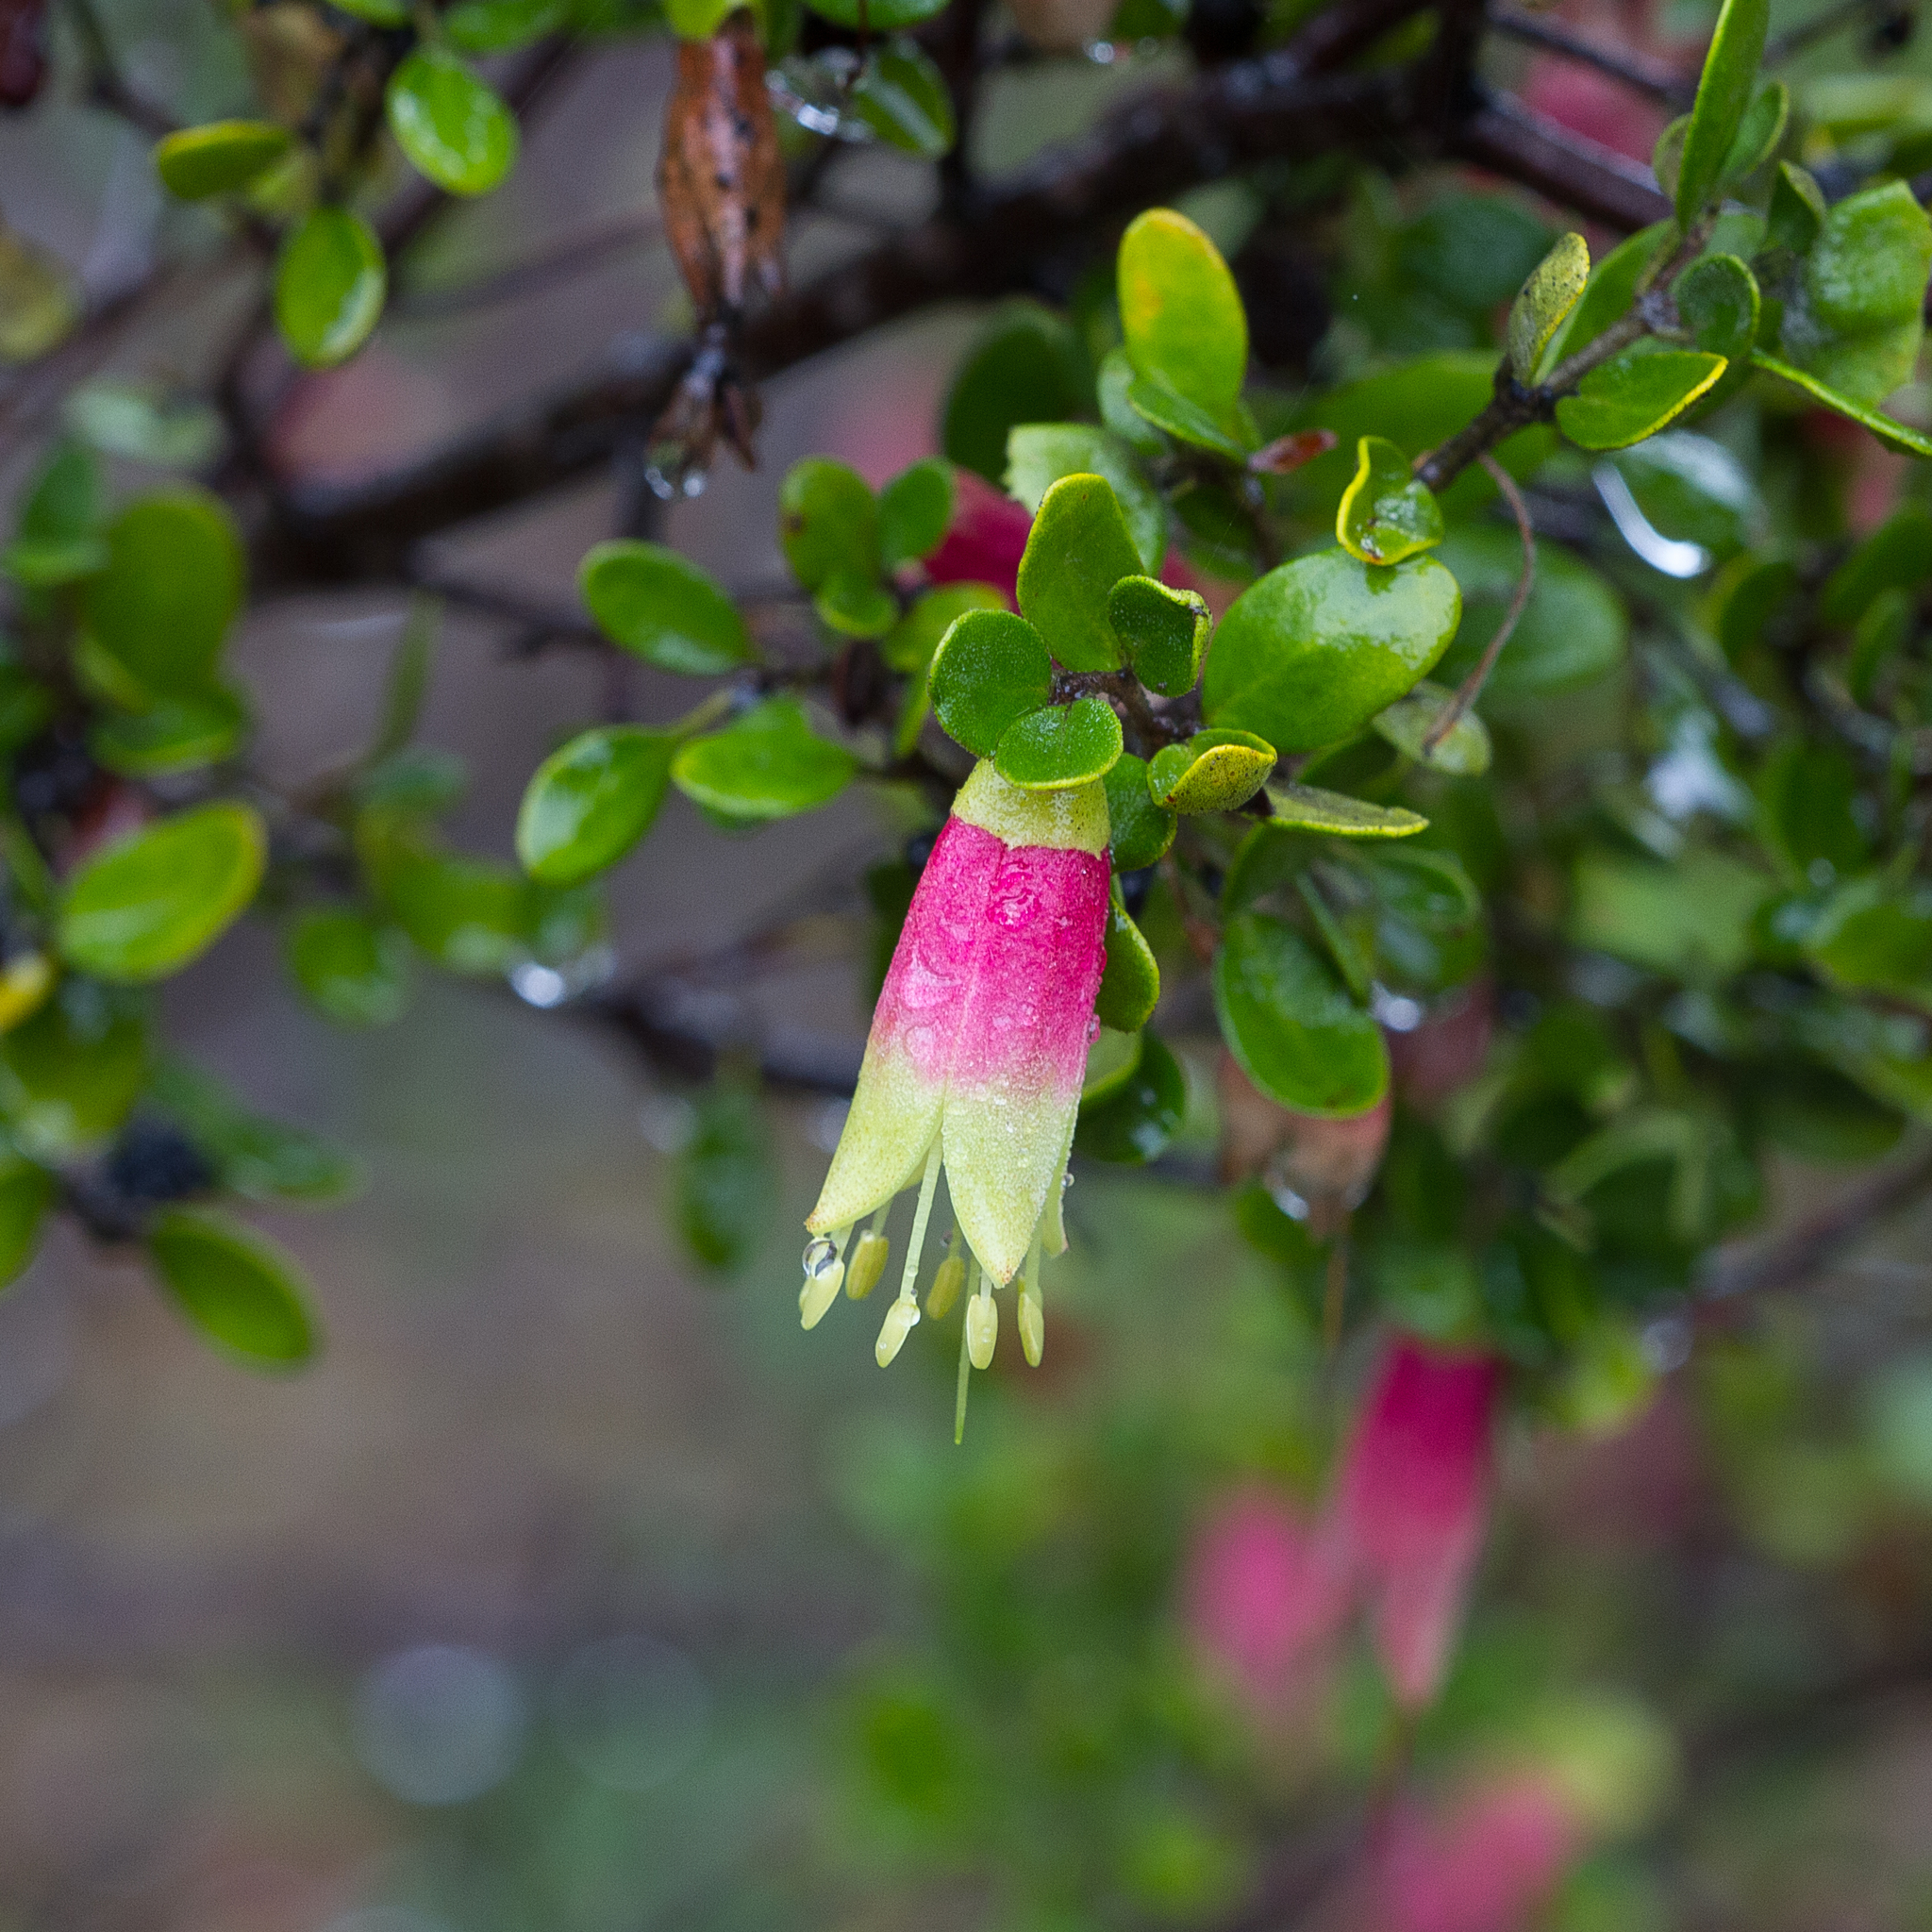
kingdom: Plantae
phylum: Tracheophyta
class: Magnoliopsida
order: Sapindales
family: Rutaceae
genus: Correa
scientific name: Correa glabra
